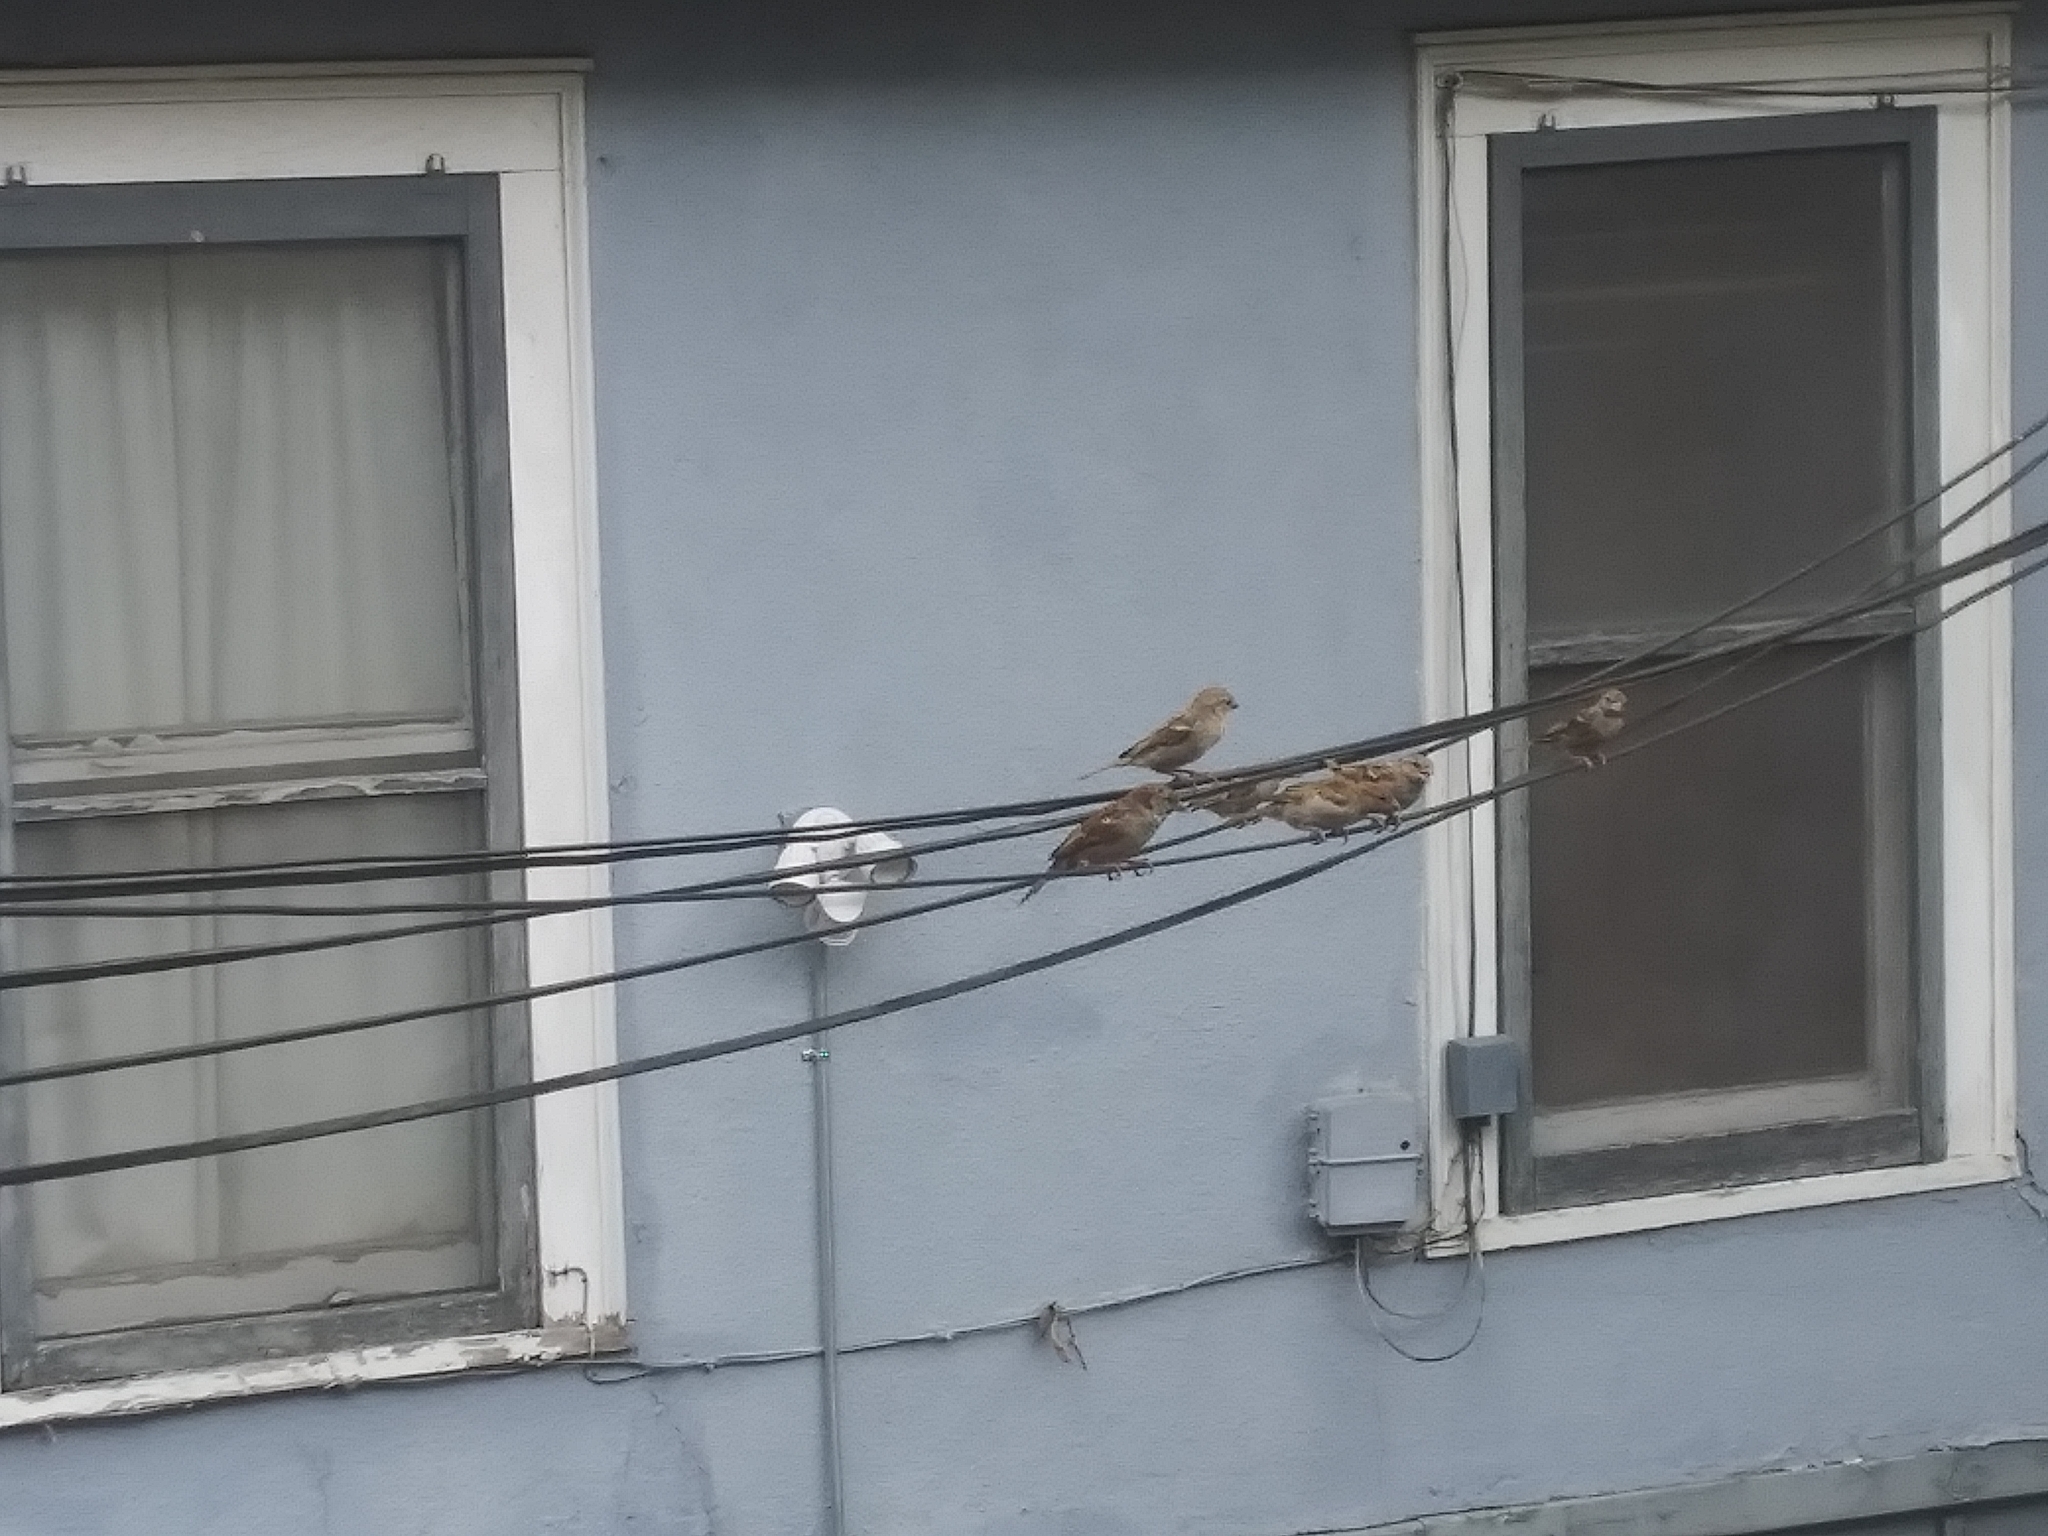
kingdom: Animalia
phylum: Chordata
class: Aves
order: Passeriformes
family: Passeridae
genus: Passer
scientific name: Passer domesticus
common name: House sparrow
